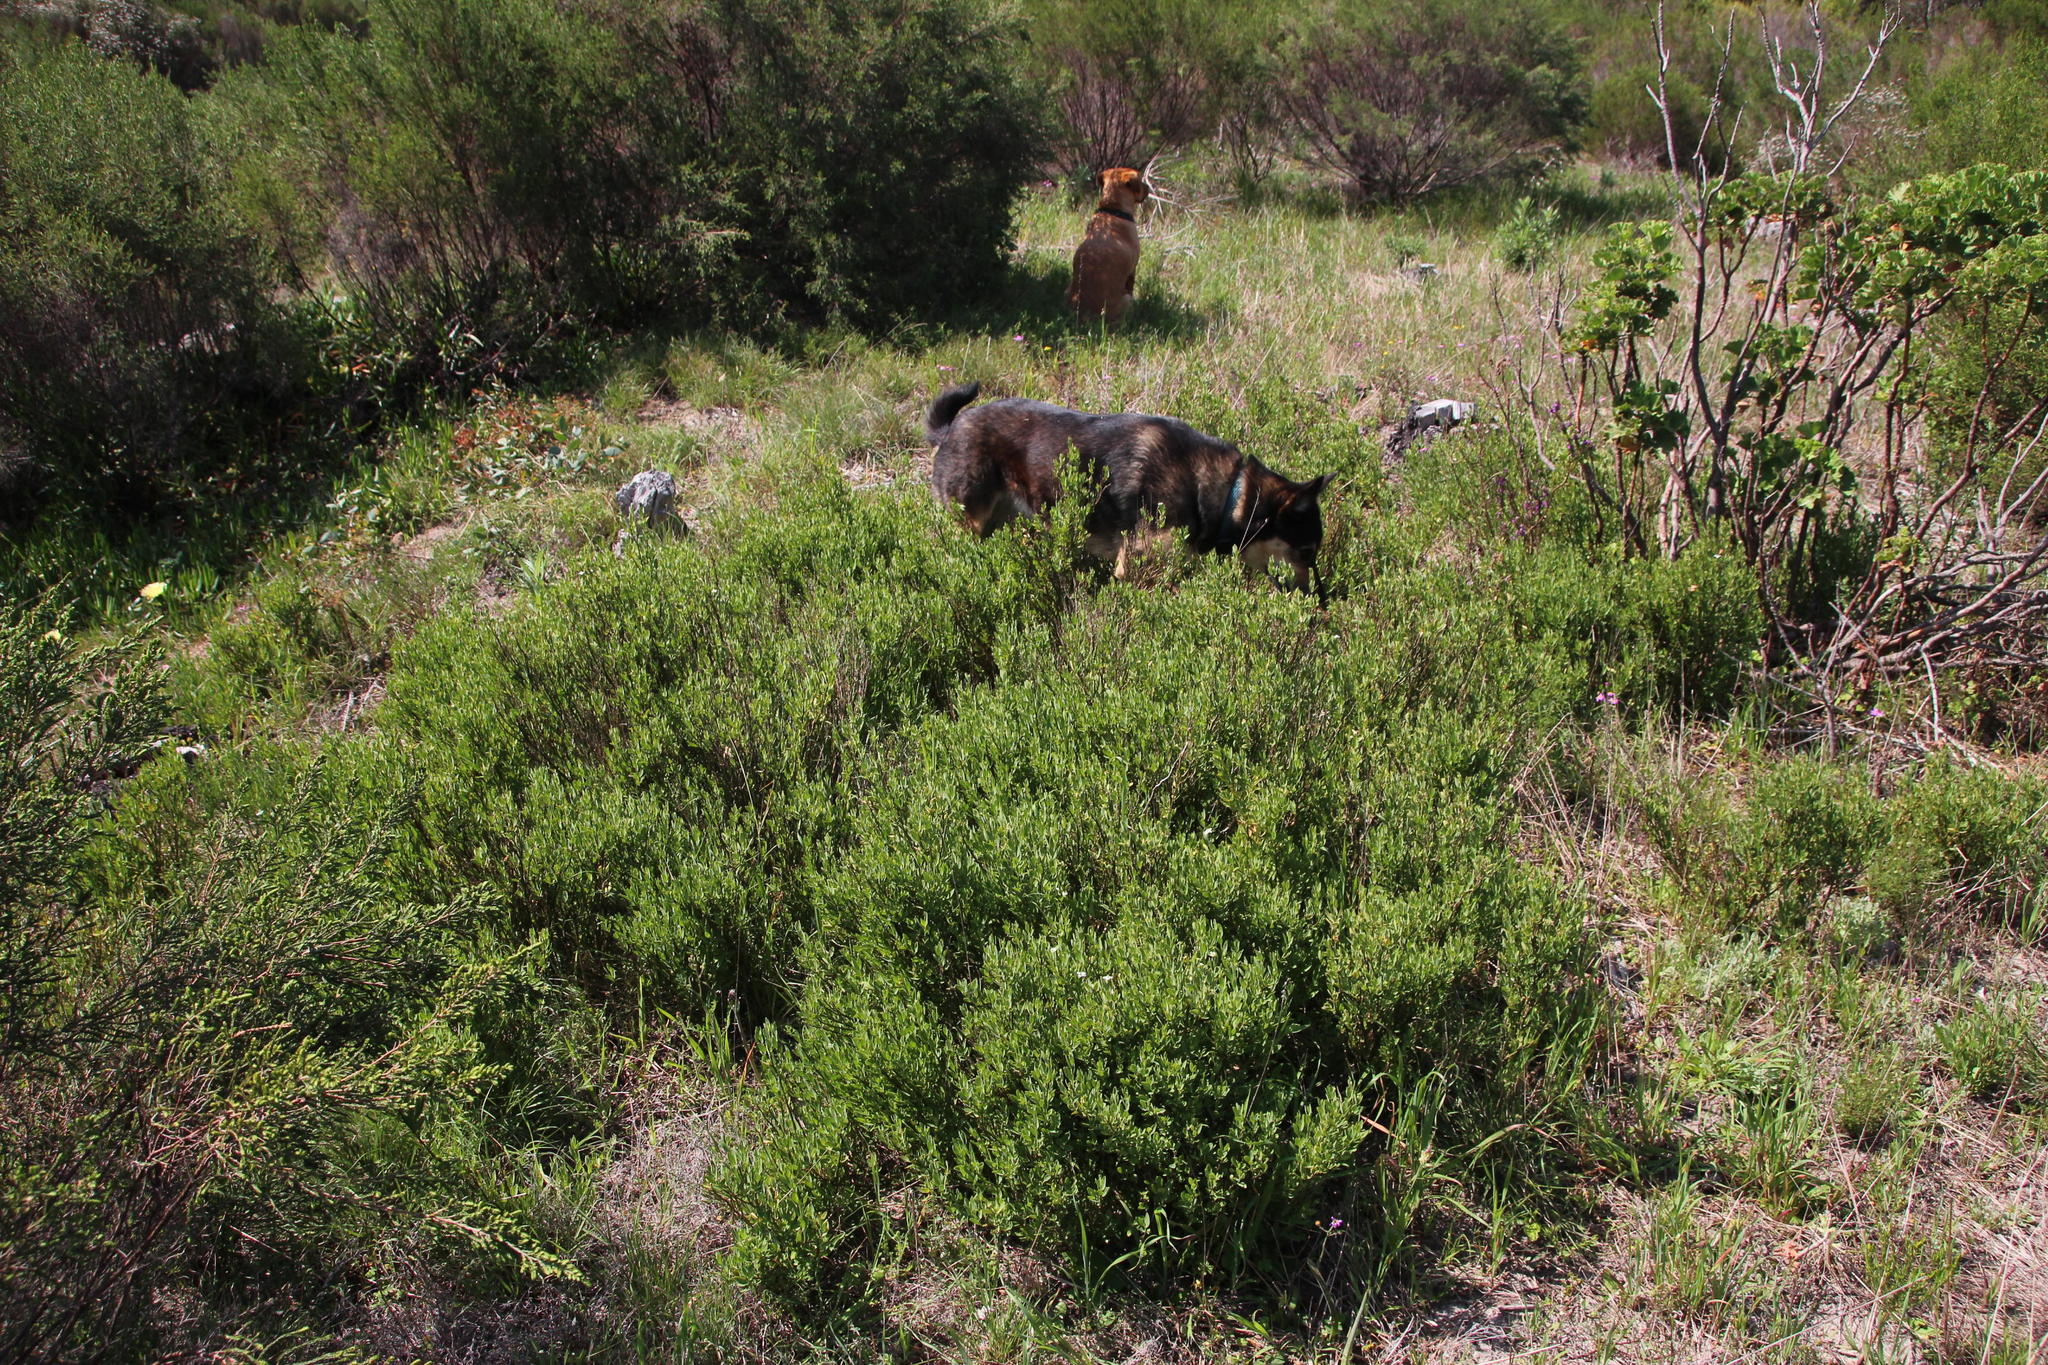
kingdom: Plantae
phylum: Tracheophyta
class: Magnoliopsida
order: Solanales
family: Montiniaceae
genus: Montinia
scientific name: Montinia caryophyllacea
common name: Wild clove-bush
